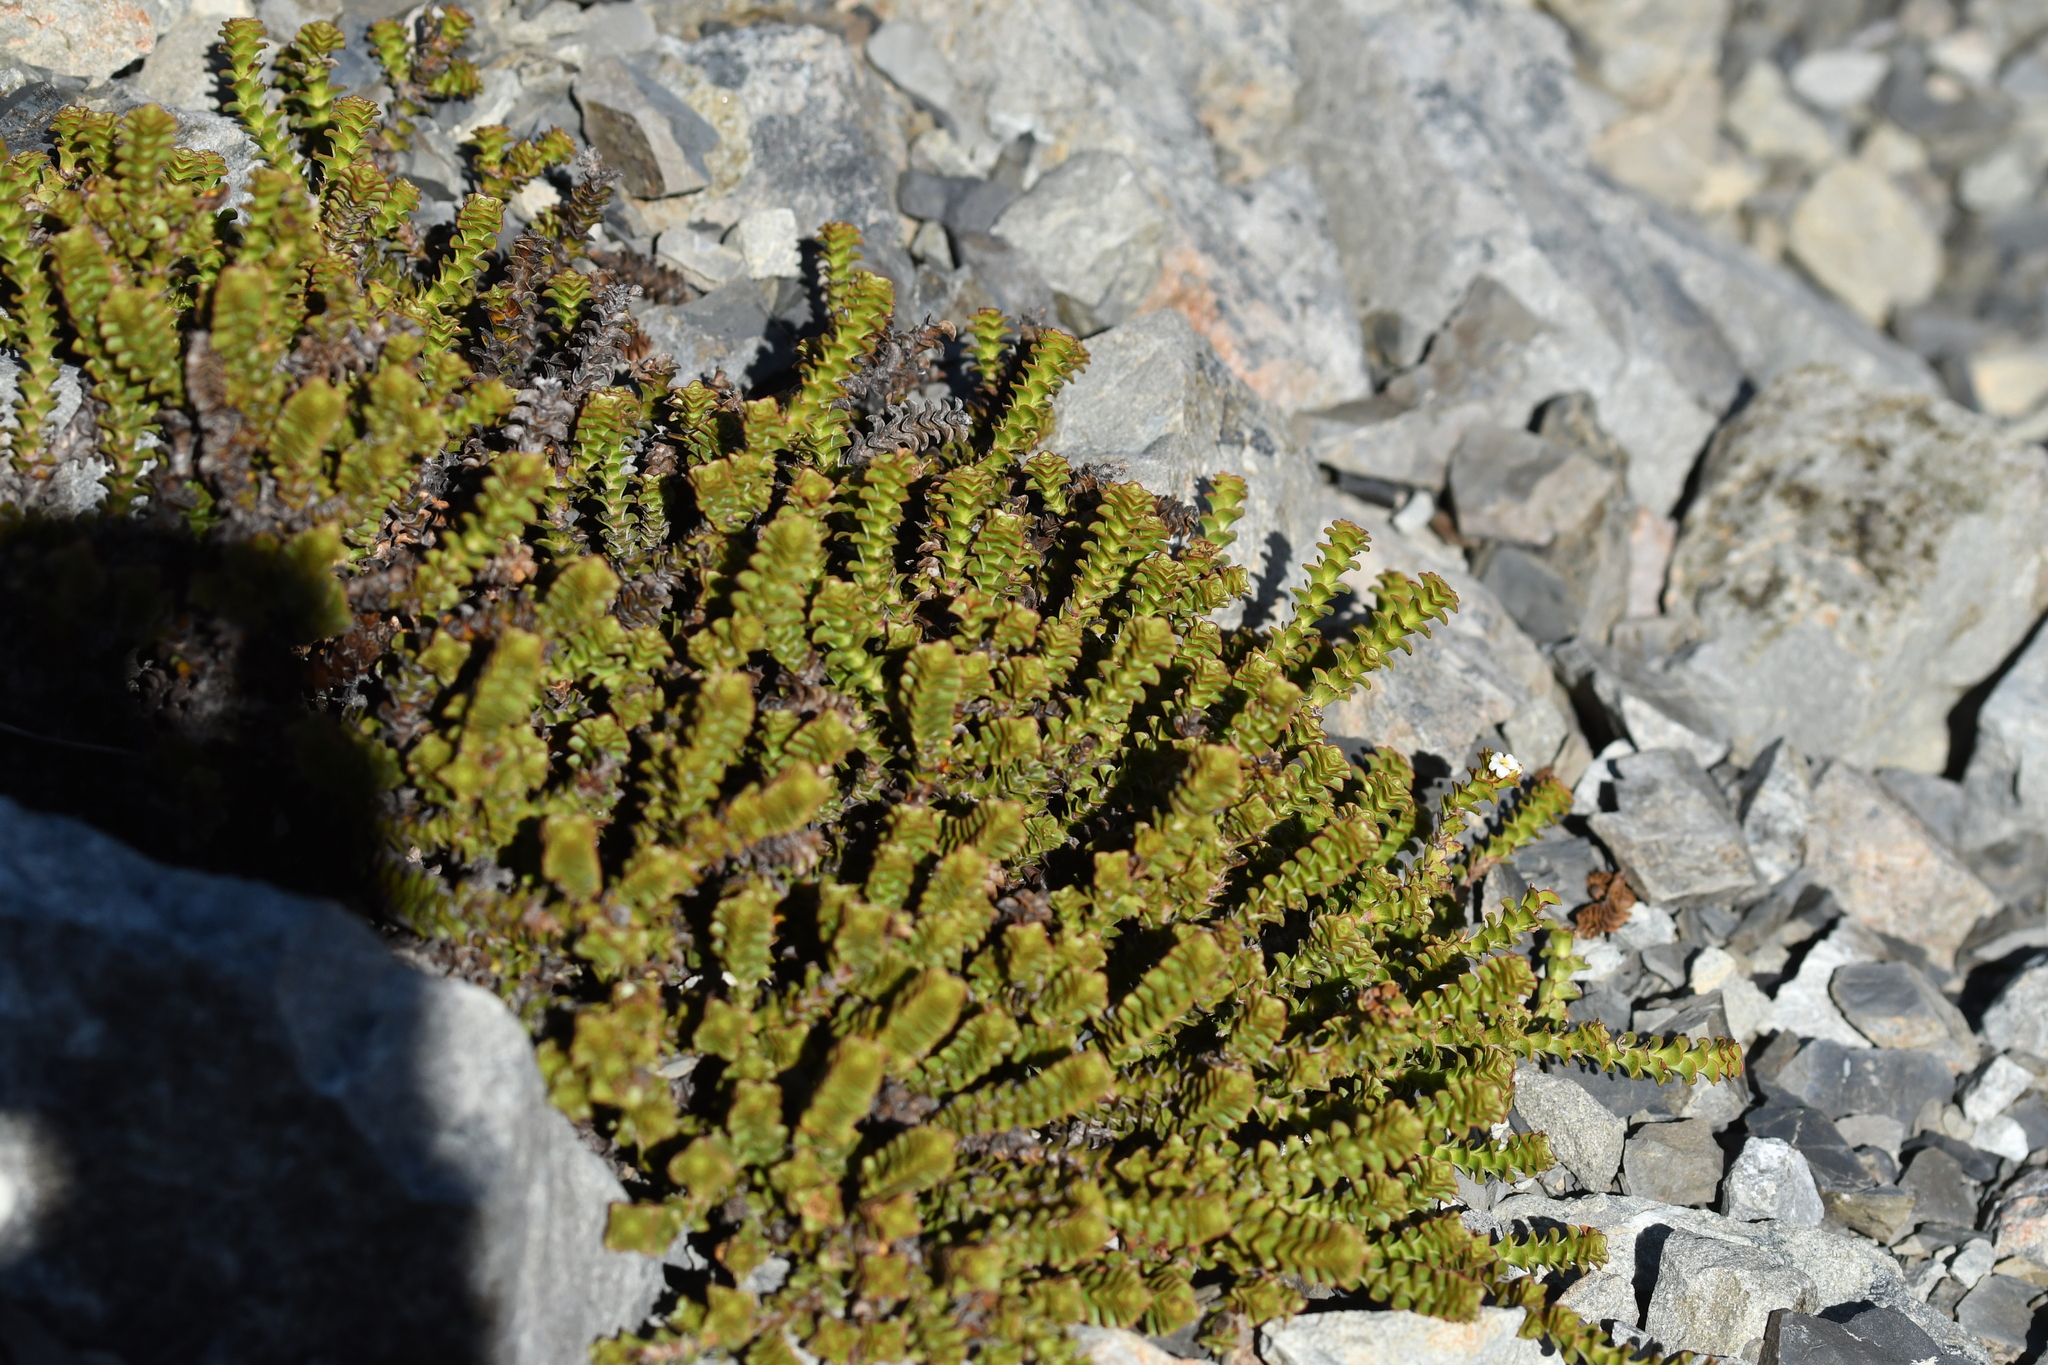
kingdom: Plantae
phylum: Tracheophyta
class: Magnoliopsida
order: Lamiales
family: Plantaginaceae
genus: Veronica
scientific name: Veronica epacridea
